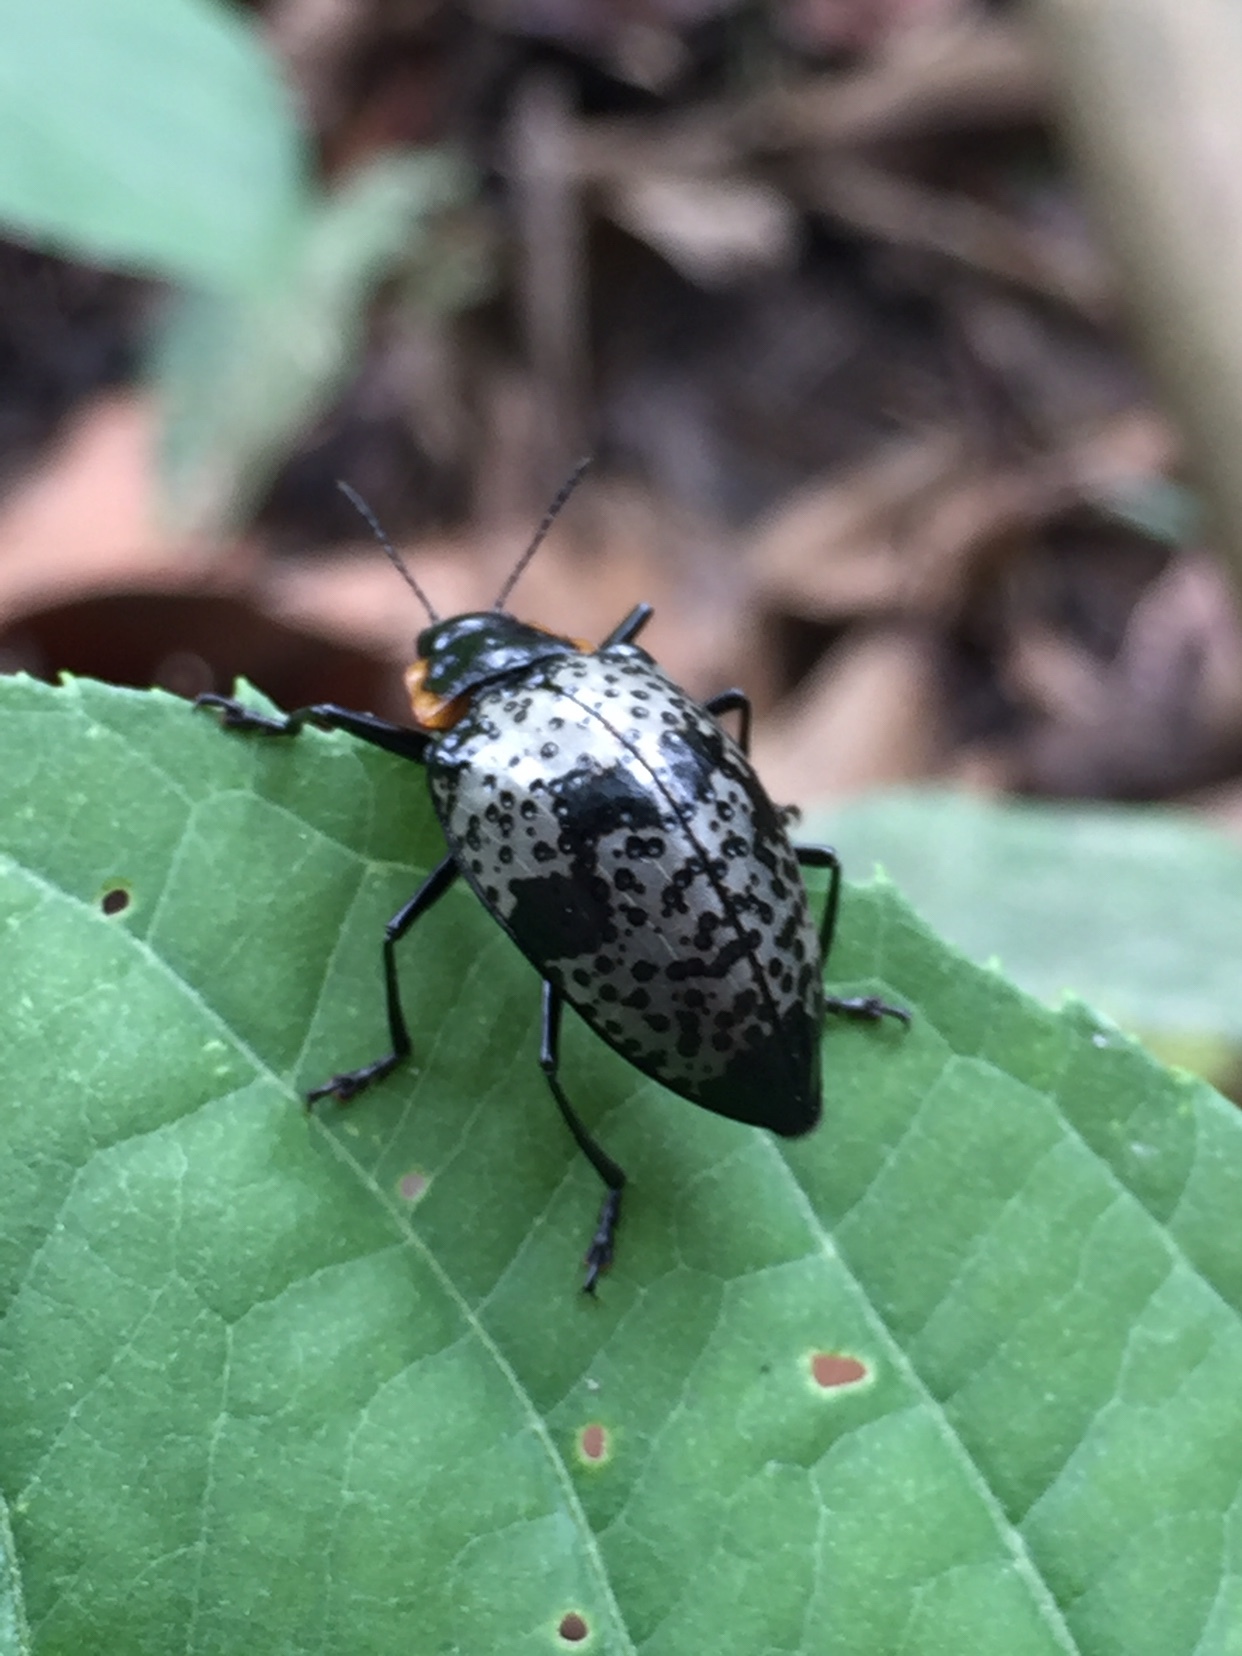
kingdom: Animalia
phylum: Arthropoda
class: Insecta
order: Coleoptera
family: Erotylidae
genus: Gibbifer
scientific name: Gibbifer
